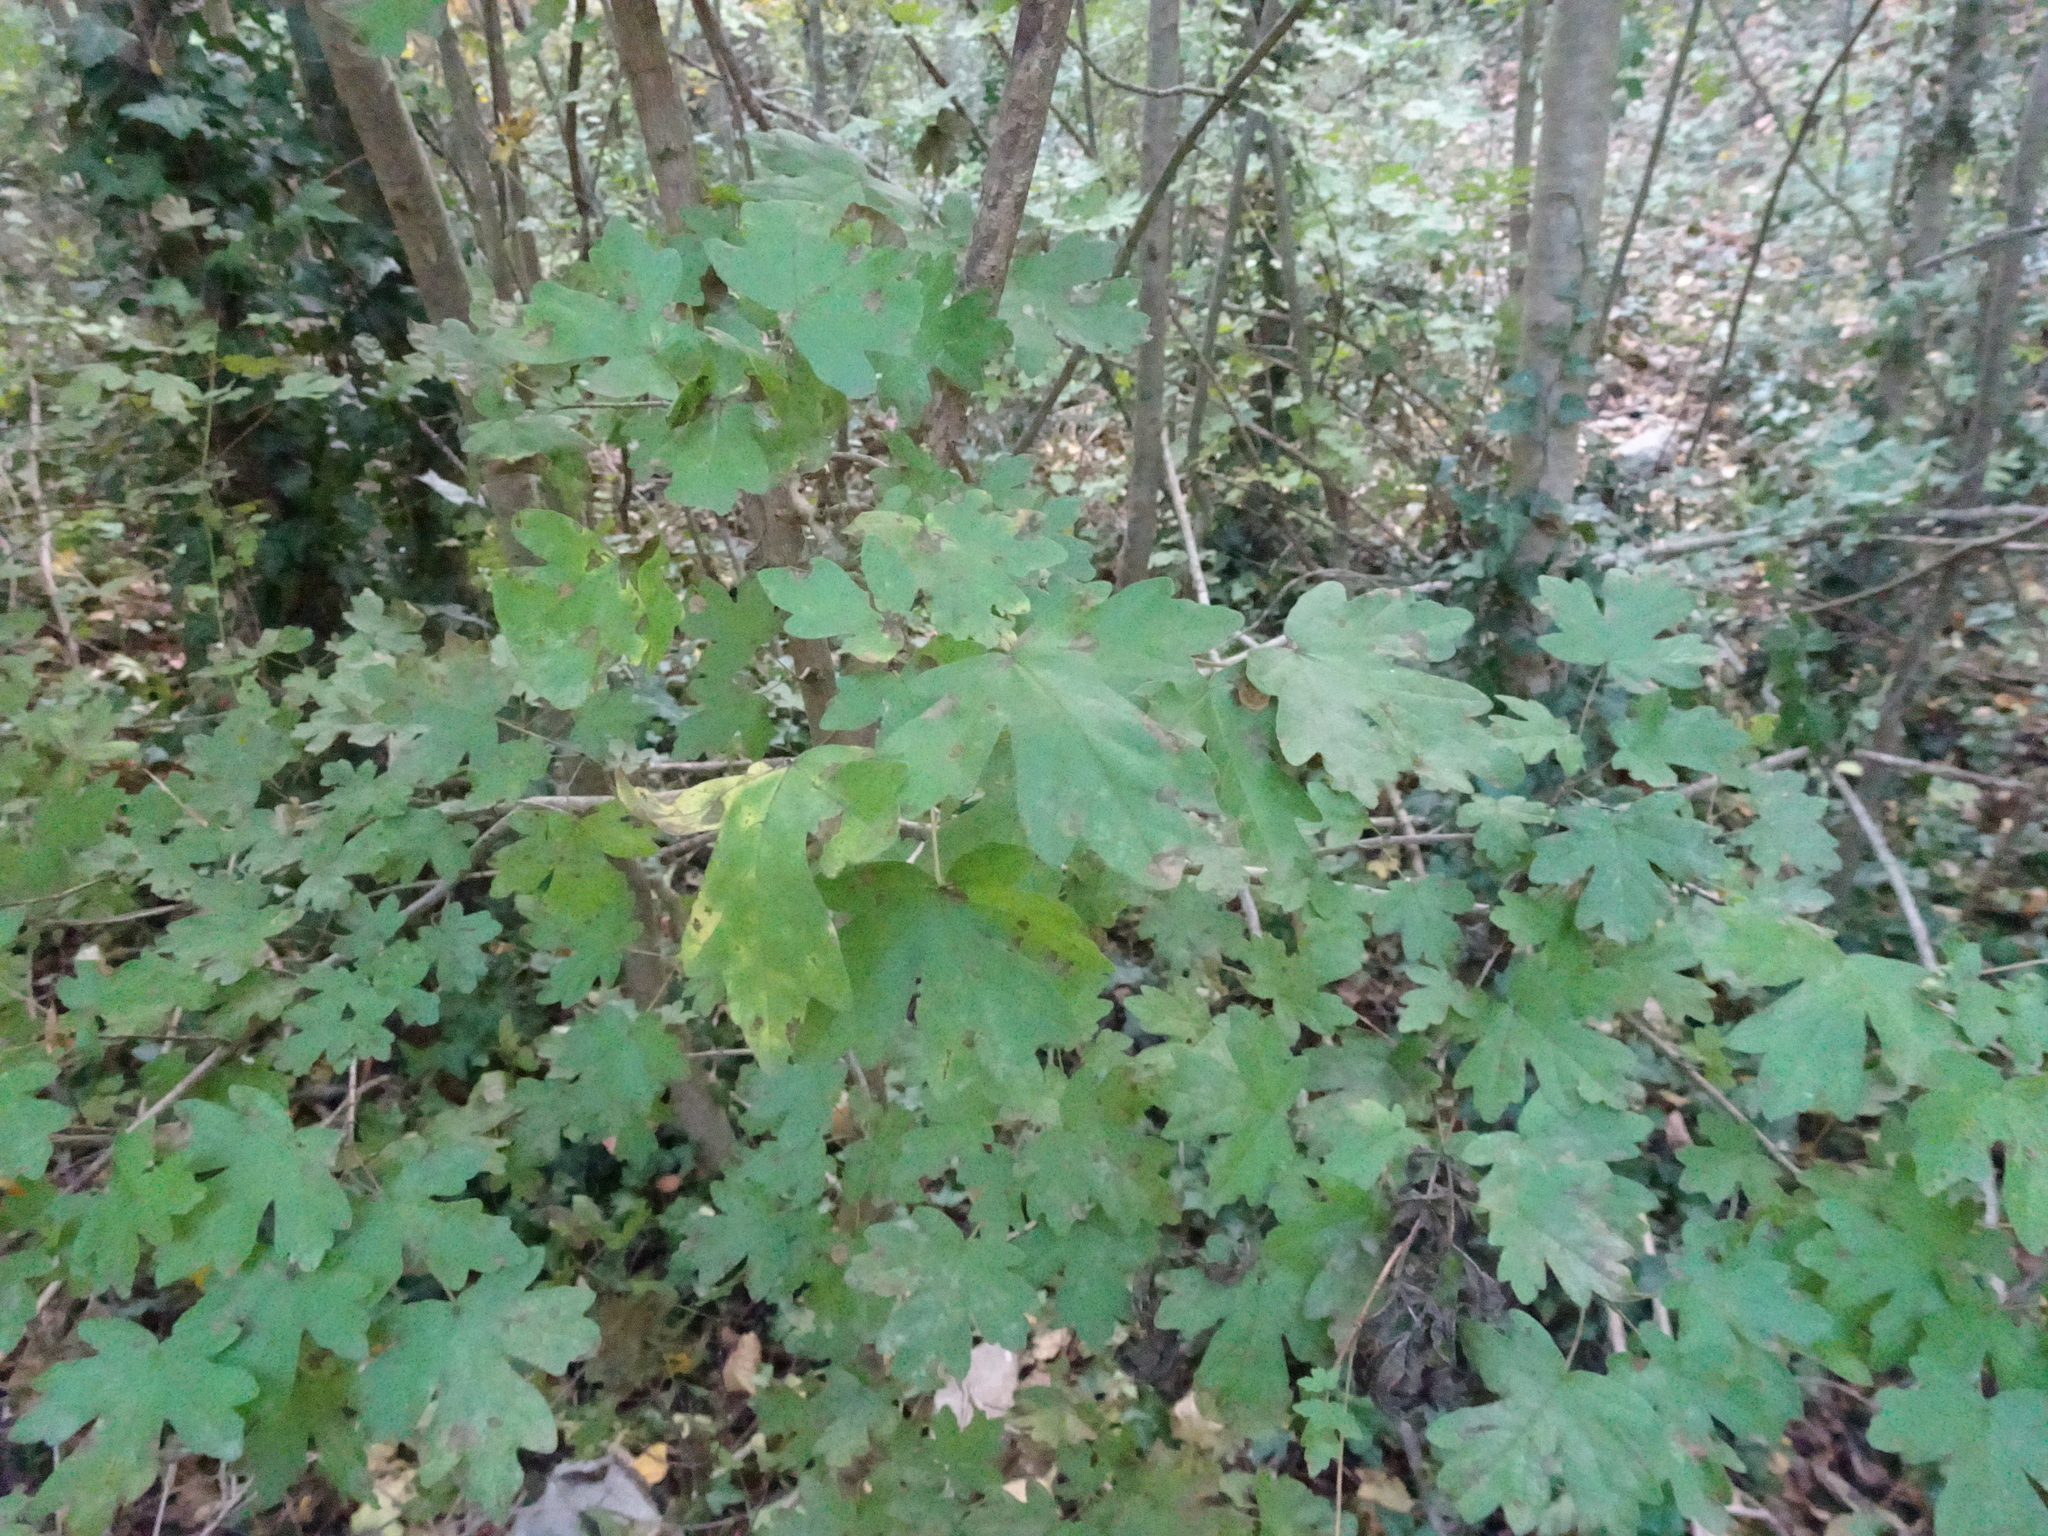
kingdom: Plantae
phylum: Tracheophyta
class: Magnoliopsida
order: Sapindales
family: Sapindaceae
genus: Acer
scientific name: Acer campestre
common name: Field maple
